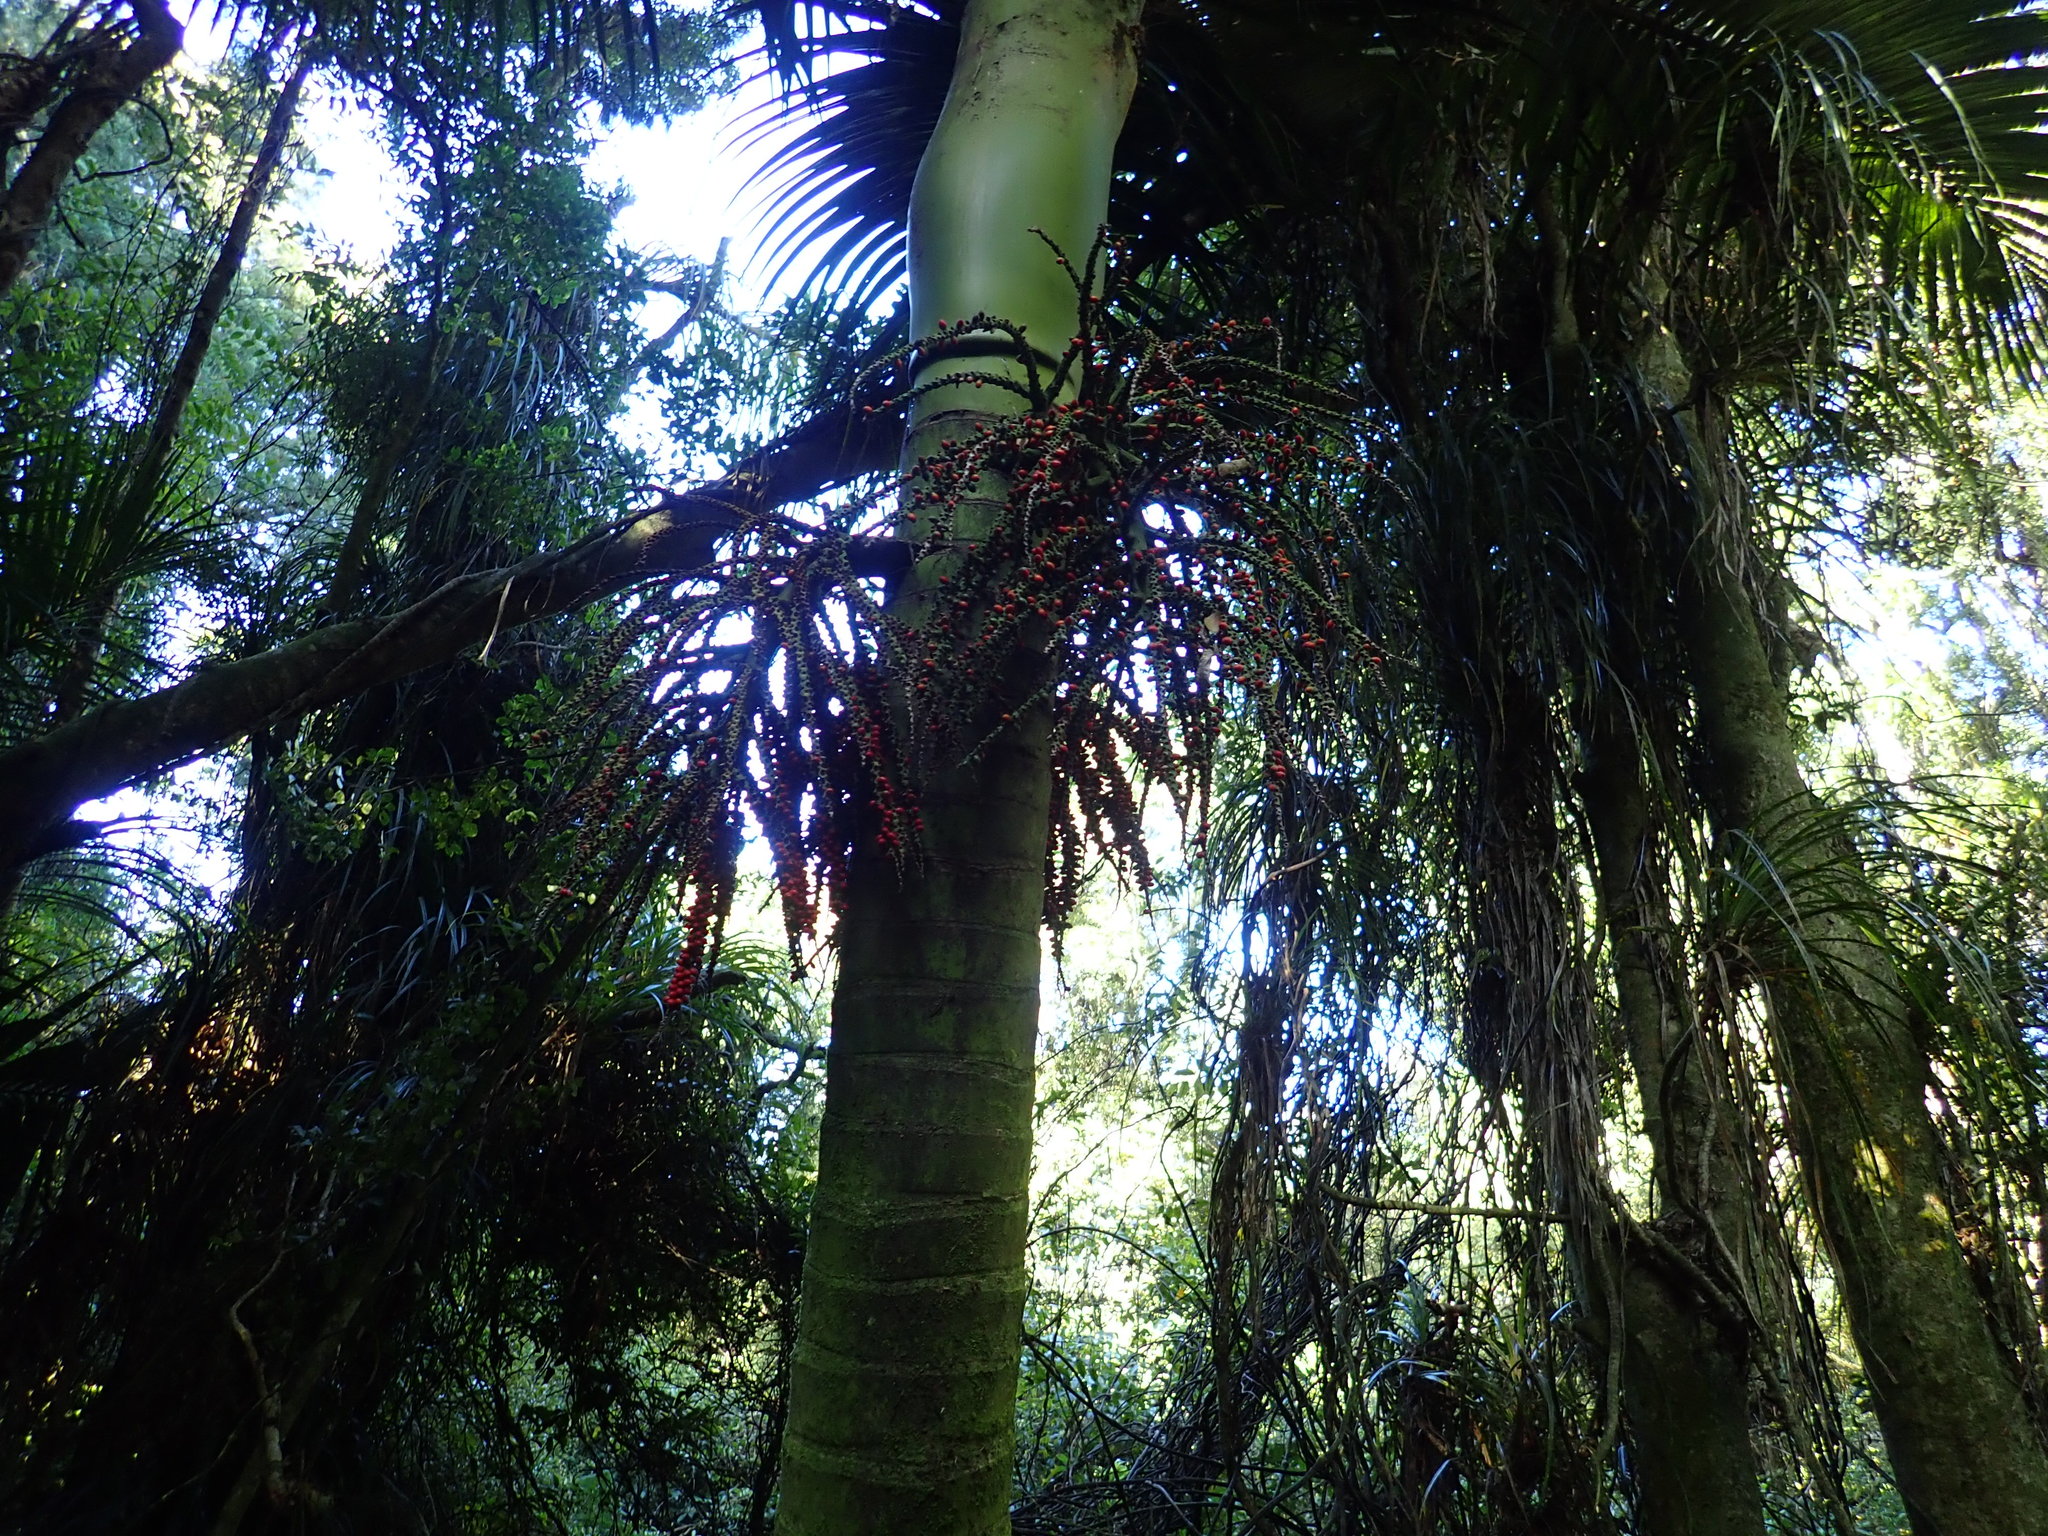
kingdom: Plantae
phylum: Tracheophyta
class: Liliopsida
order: Arecales
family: Arecaceae
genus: Rhopalostylis
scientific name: Rhopalostylis sapida
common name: Feather-duster palm
